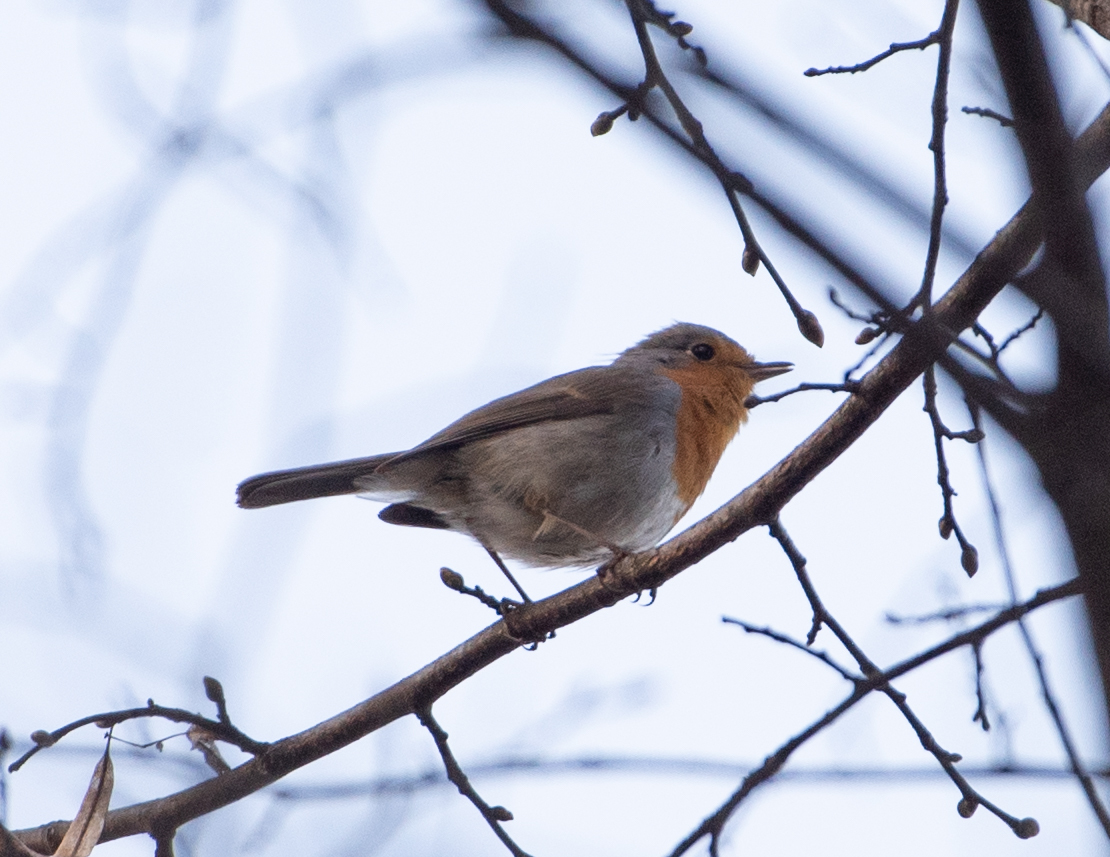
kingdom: Animalia
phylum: Chordata
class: Aves
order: Passeriformes
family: Muscicapidae
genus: Erithacus
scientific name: Erithacus rubecula
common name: European robin
